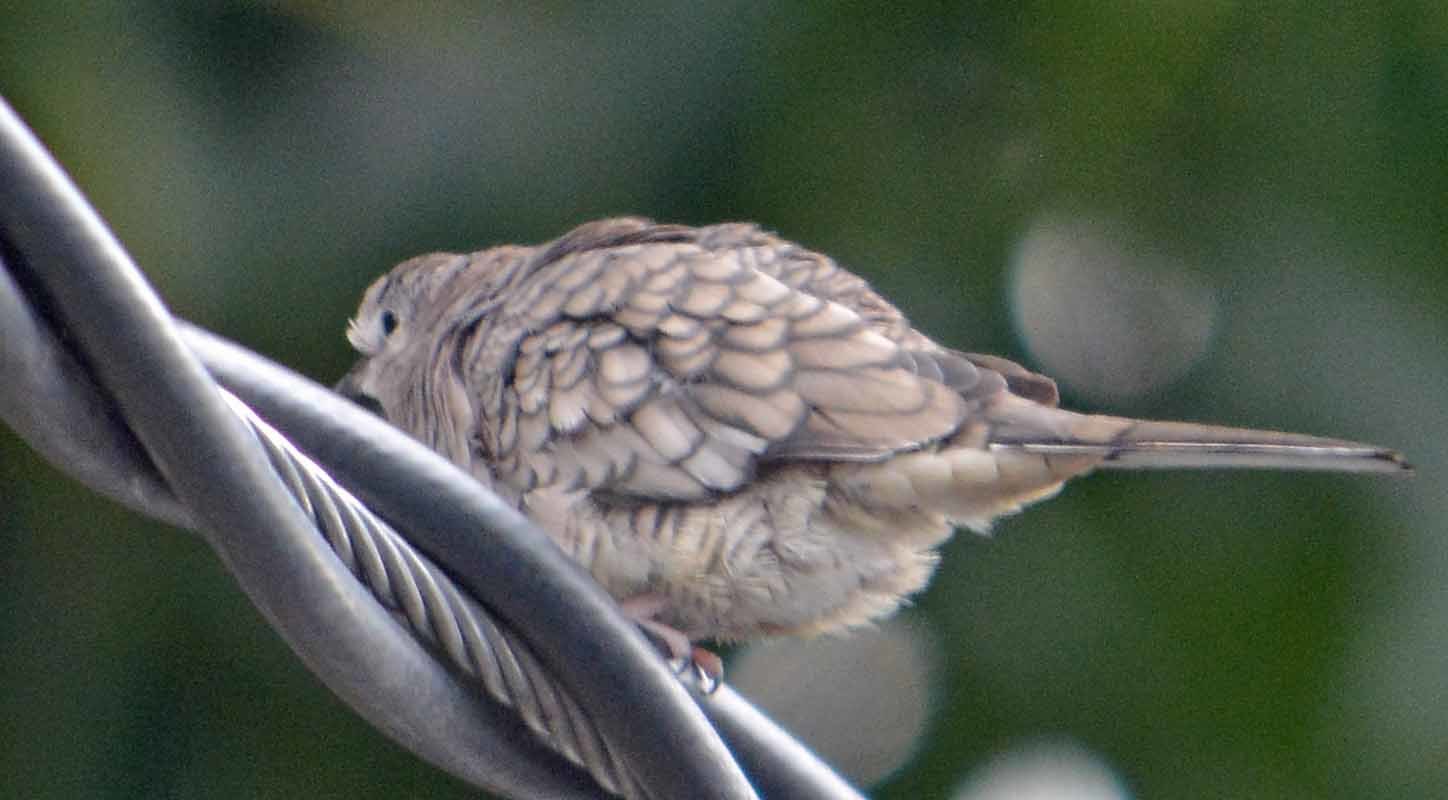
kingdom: Animalia
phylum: Chordata
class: Aves
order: Columbiformes
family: Columbidae
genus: Columbina
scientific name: Columbina inca
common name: Inca dove
